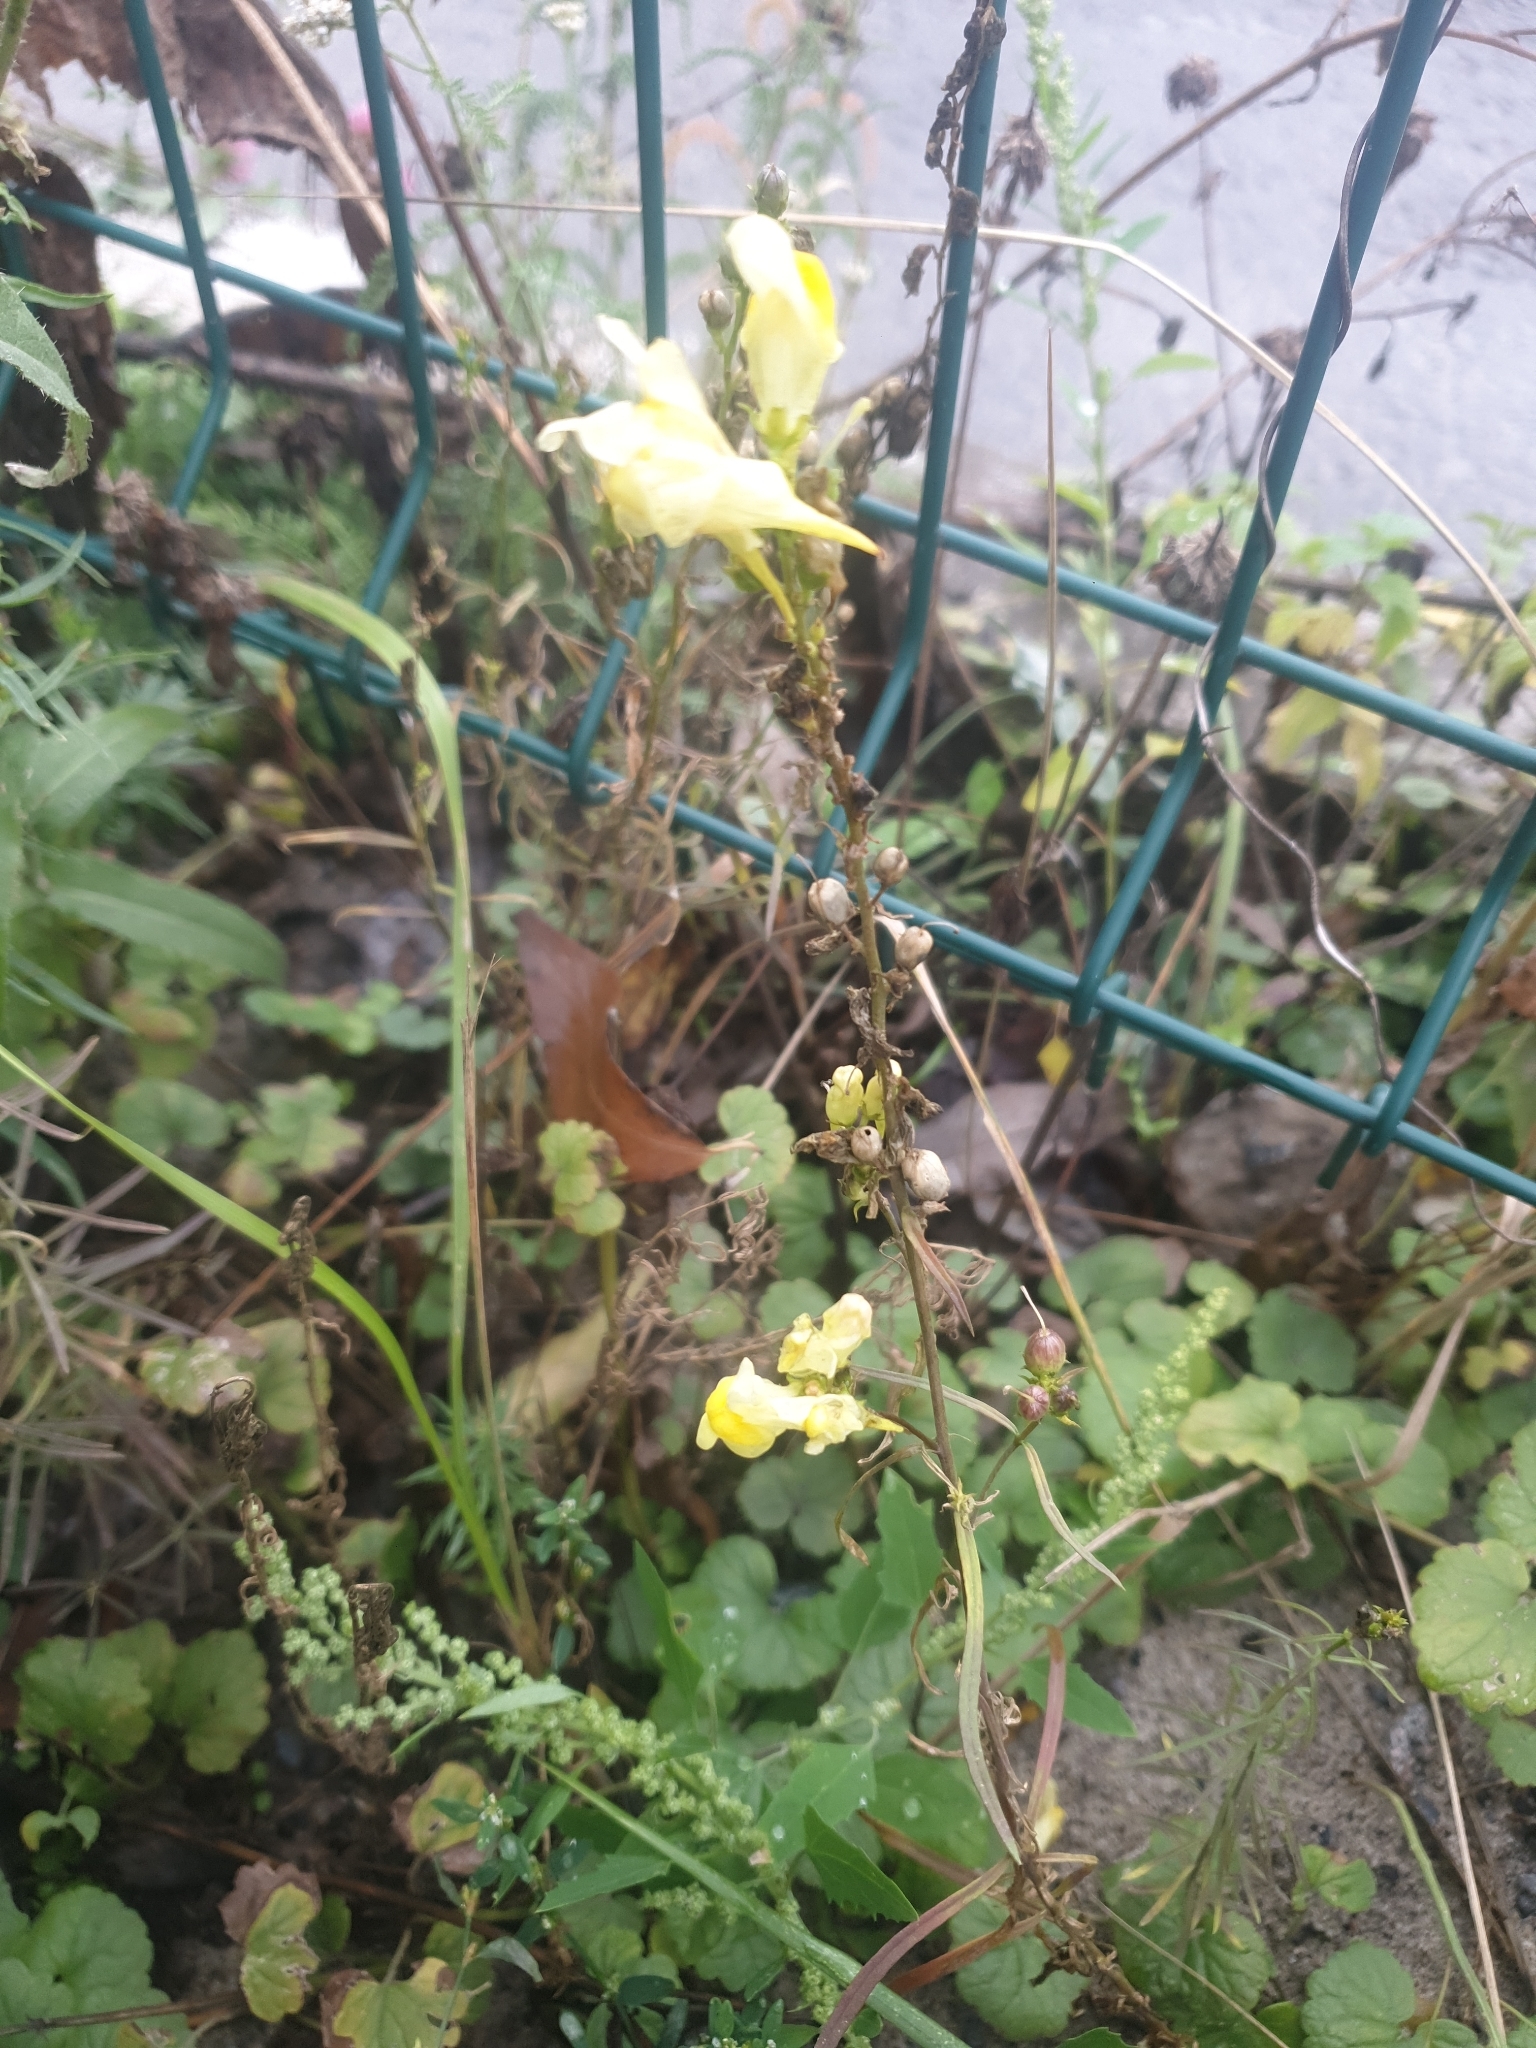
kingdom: Plantae
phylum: Tracheophyta
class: Magnoliopsida
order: Lamiales
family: Plantaginaceae
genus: Linaria
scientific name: Linaria vulgaris
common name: Butter and eggs
